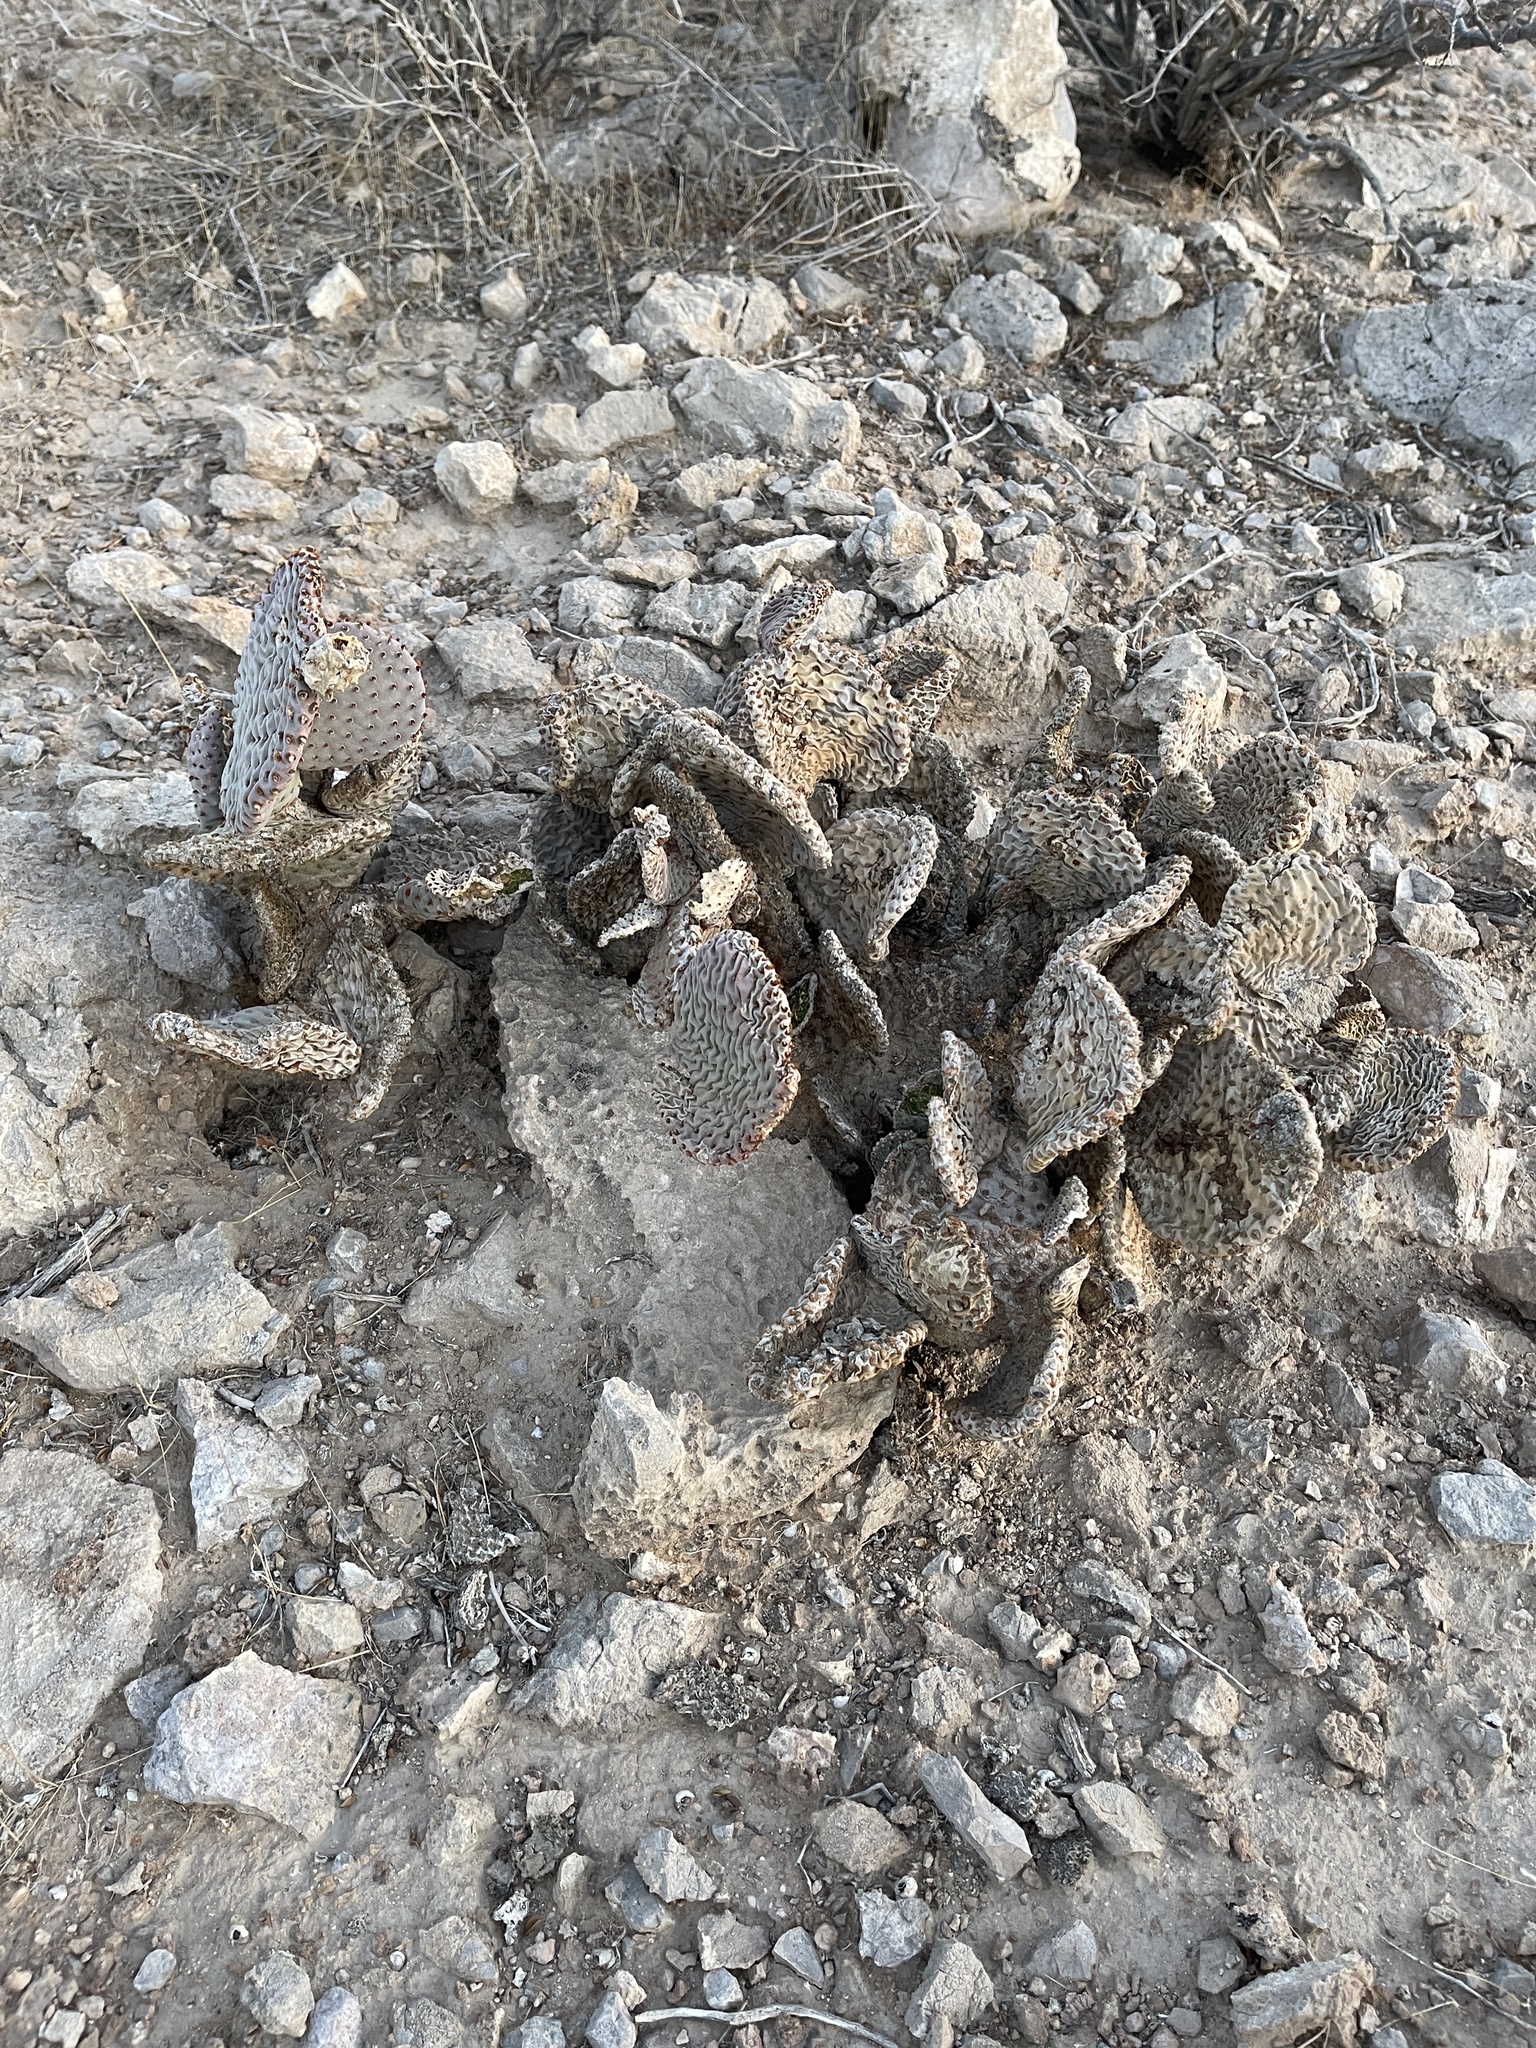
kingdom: Plantae
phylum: Tracheophyta
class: Magnoliopsida
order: Caryophyllales
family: Cactaceae
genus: Opuntia
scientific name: Opuntia basilaris
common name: Beavertail prickly-pear
